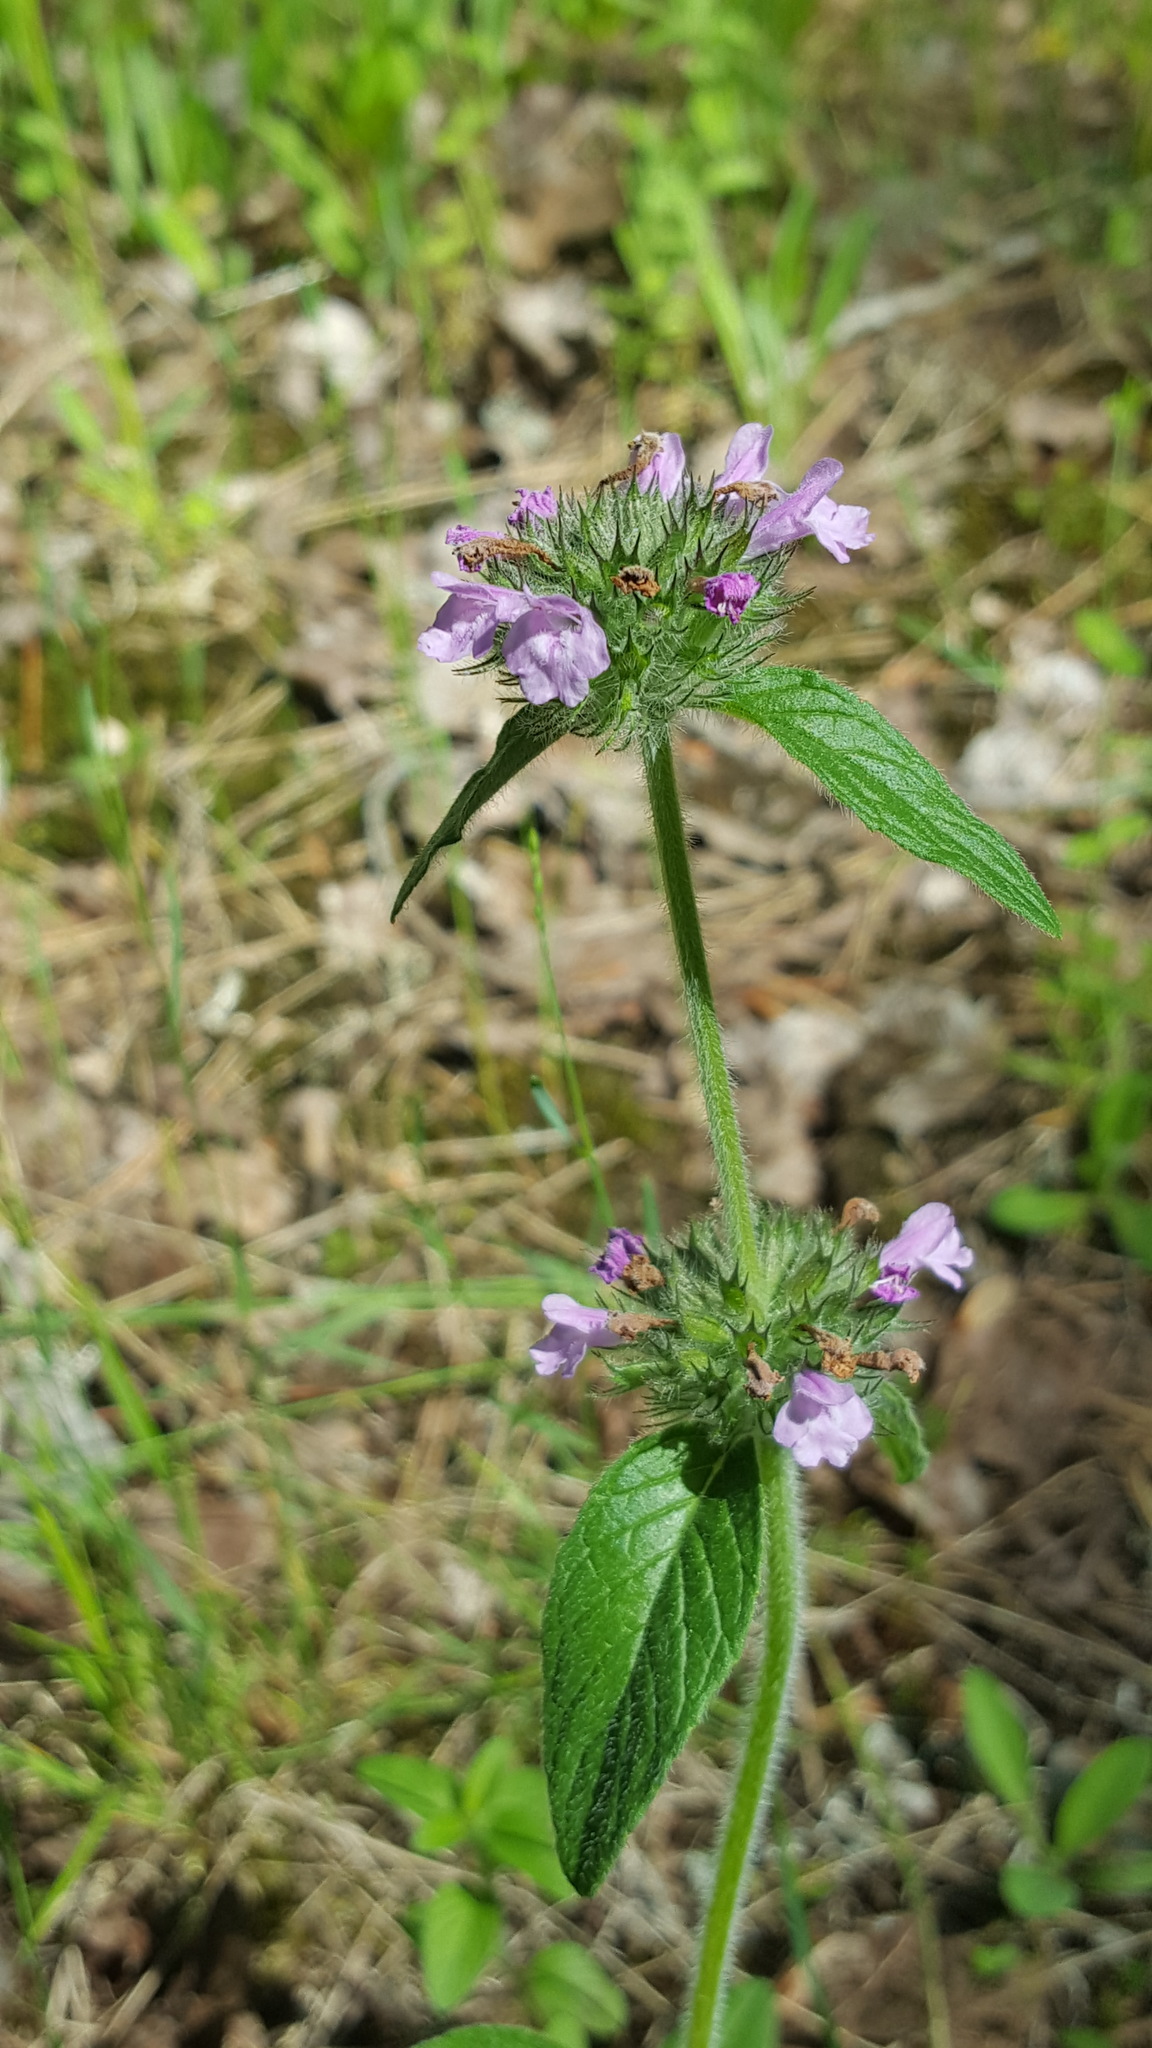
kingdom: Plantae
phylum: Tracheophyta
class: Magnoliopsida
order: Lamiales
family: Lamiaceae
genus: Clinopodium
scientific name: Clinopodium vulgare
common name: Wild basil
